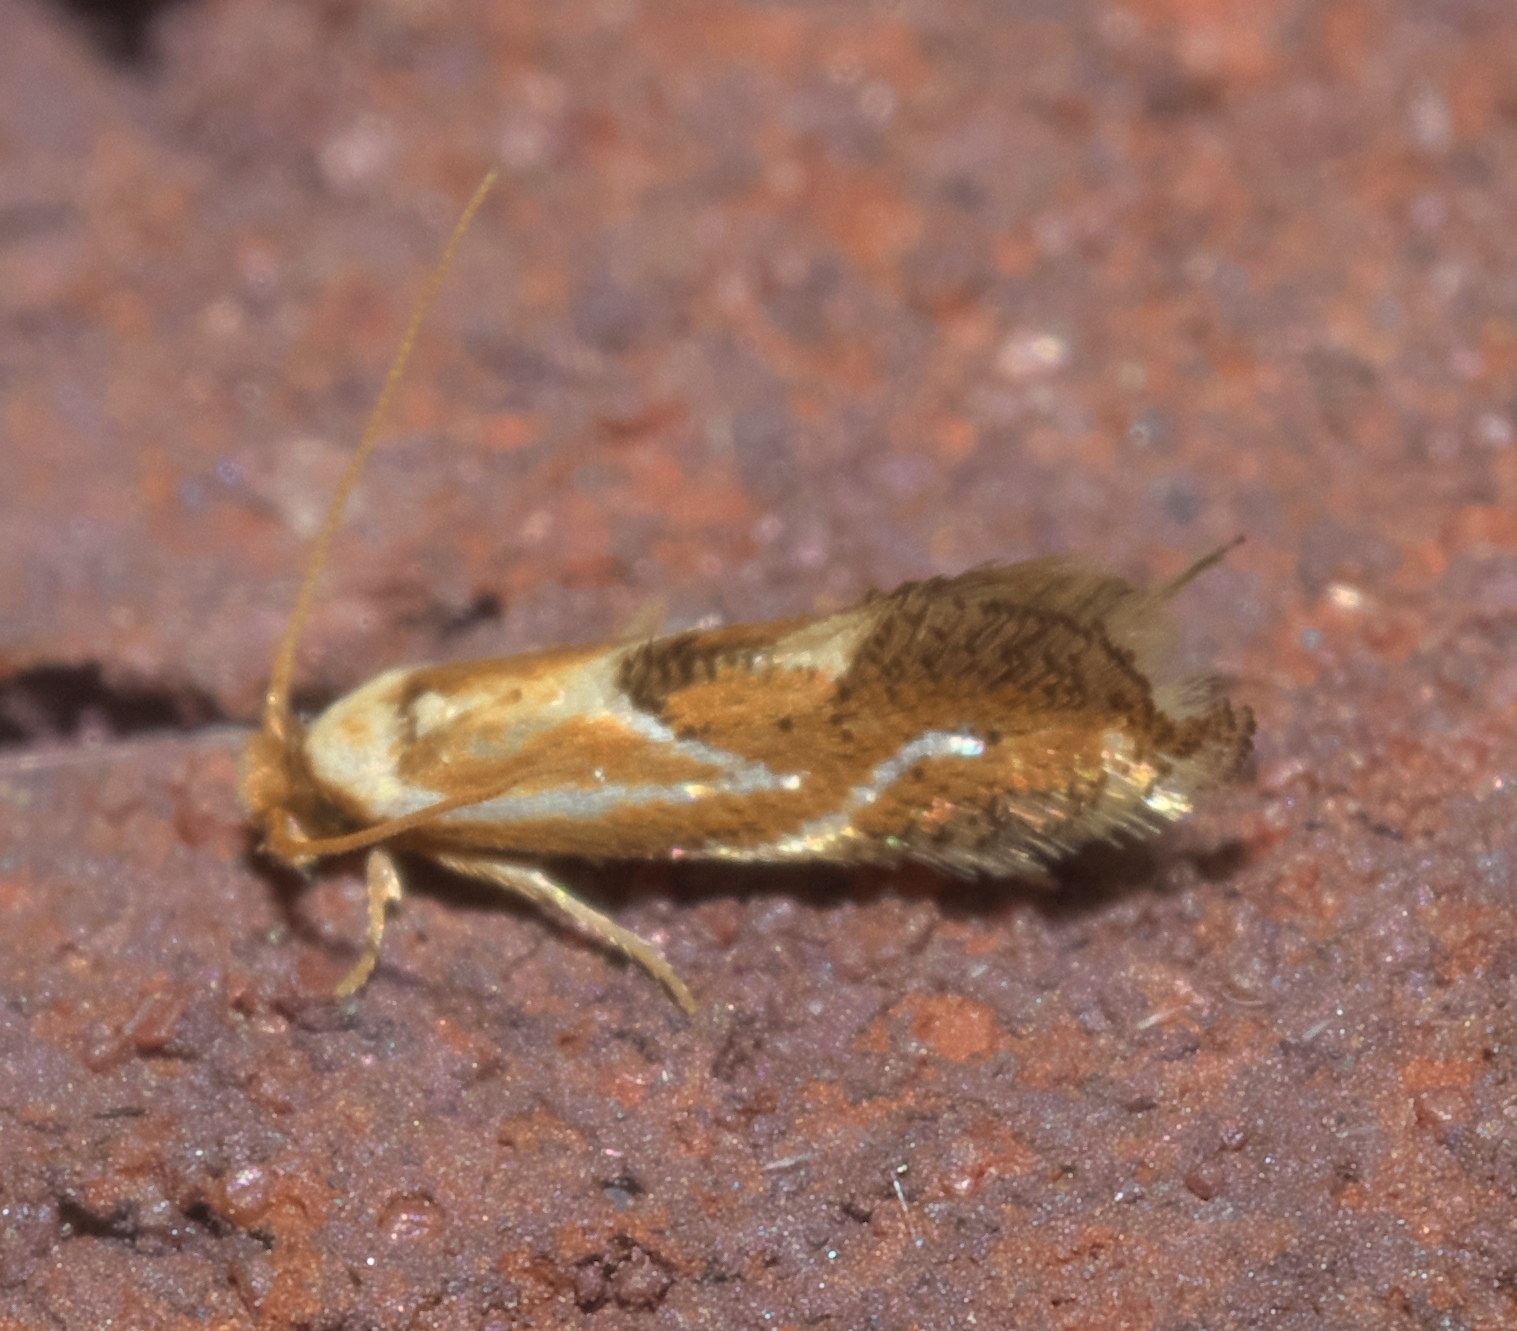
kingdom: Animalia
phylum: Arthropoda
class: Insecta
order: Lepidoptera
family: Lyonetiidae
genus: Philonome
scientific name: Philonome clemensella
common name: Clemen's philonome moth
